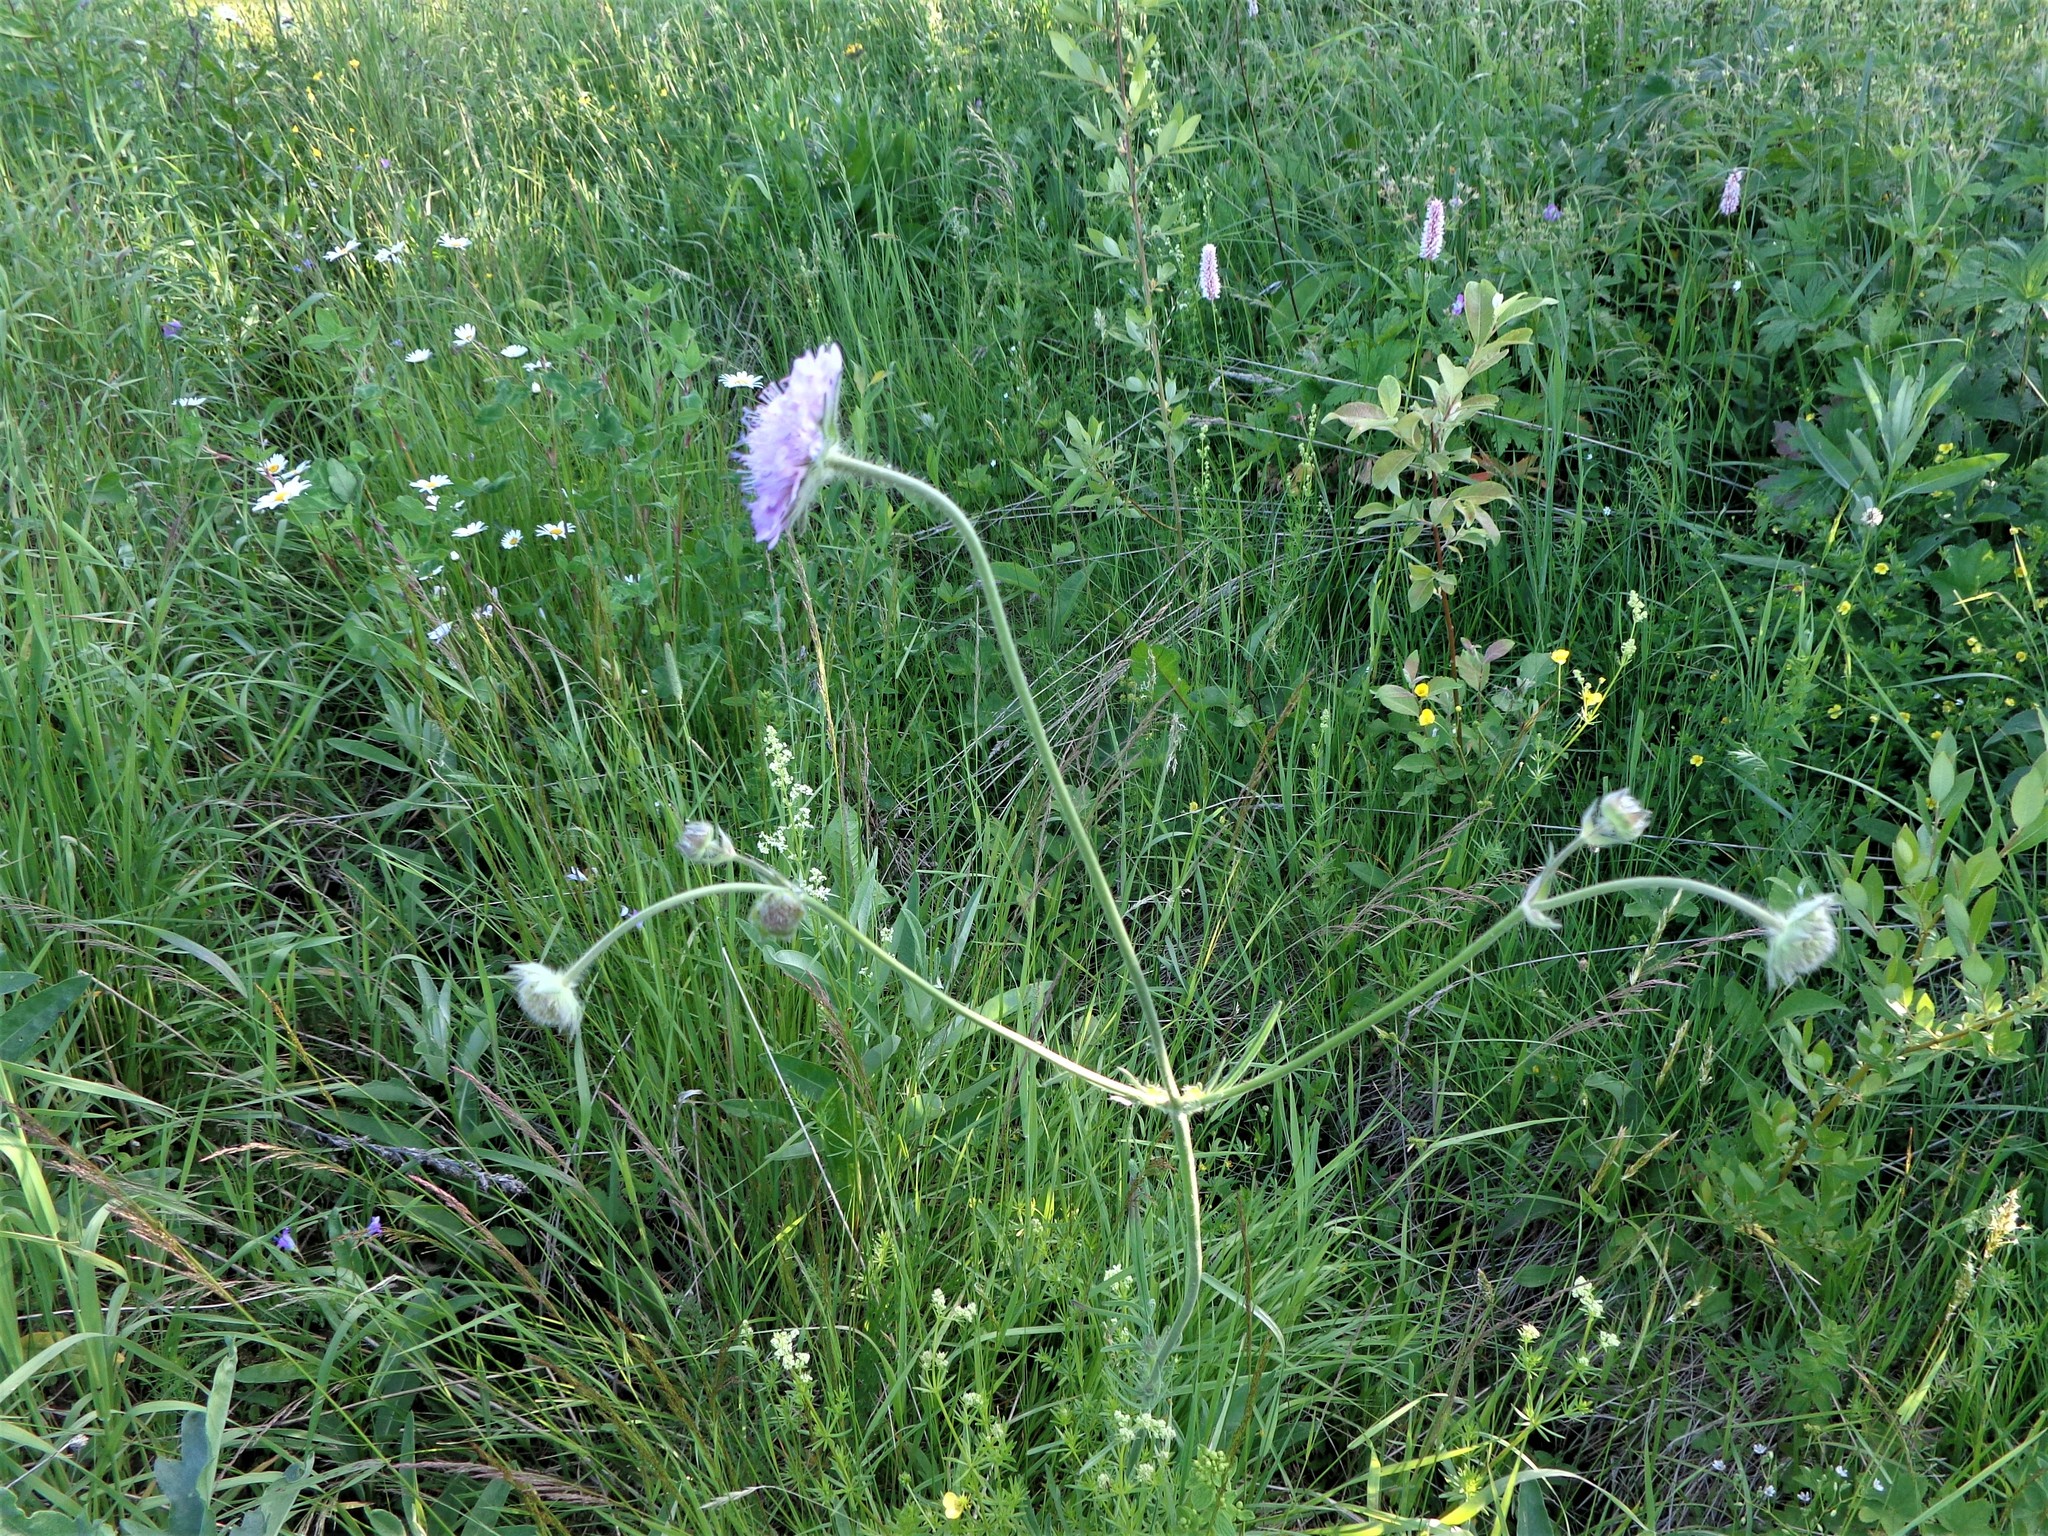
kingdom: Plantae
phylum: Tracheophyta
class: Magnoliopsida
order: Dipsacales
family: Caprifoliaceae
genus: Knautia
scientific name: Knautia arvensis
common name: Field scabiosa
